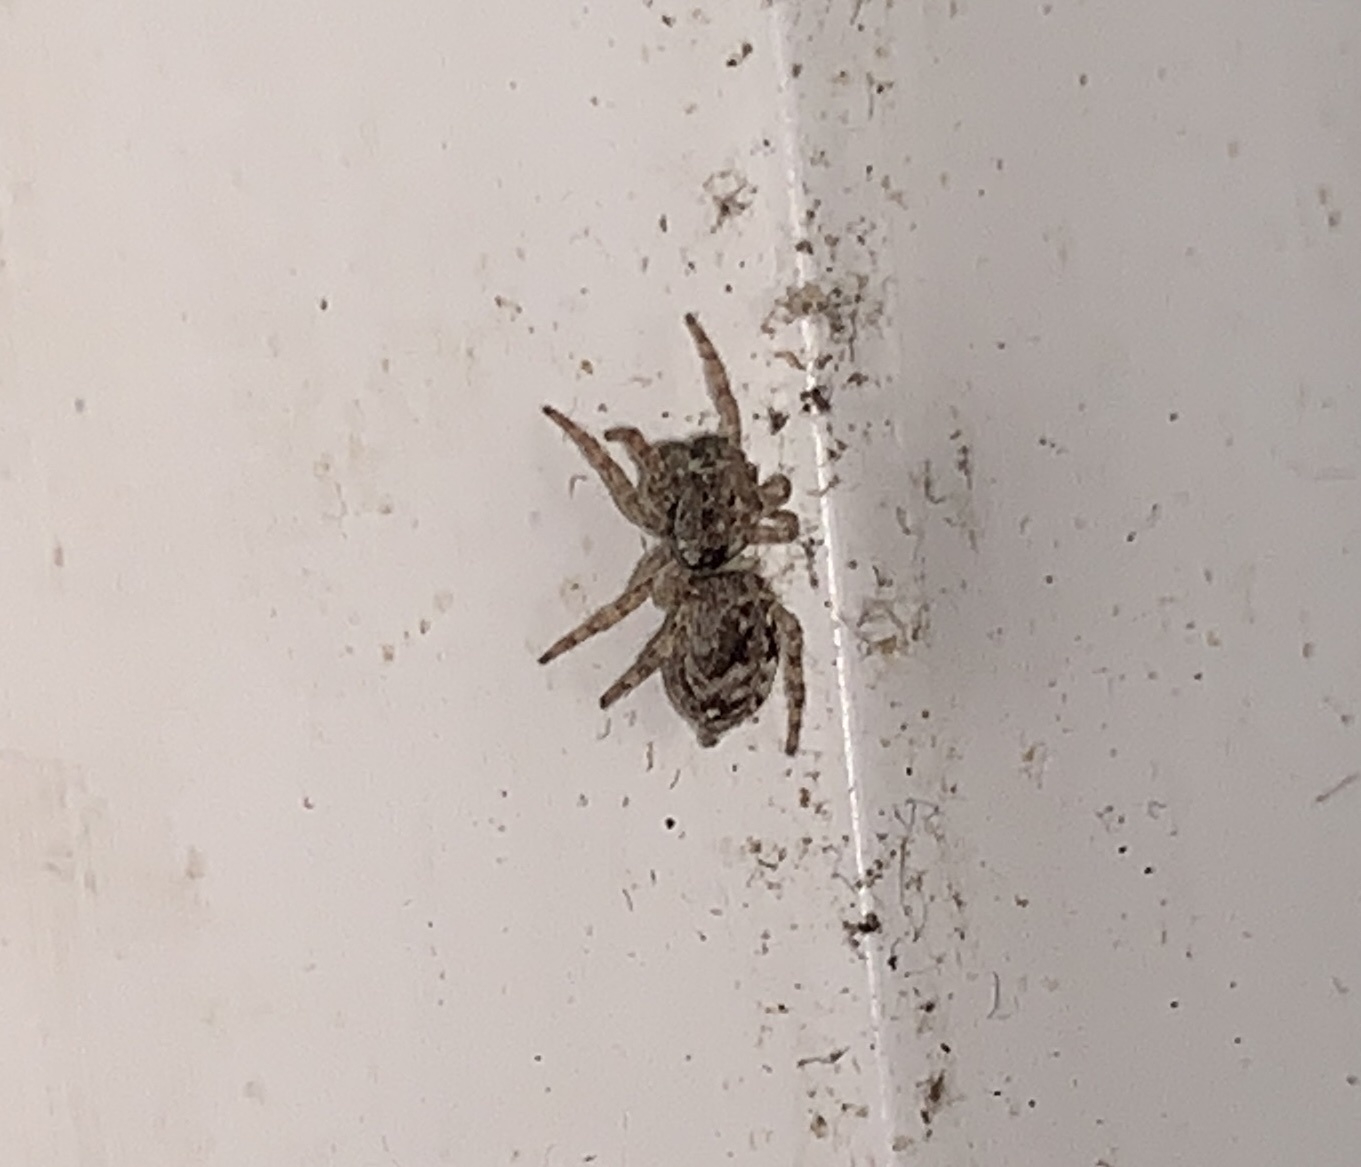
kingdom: Animalia
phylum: Arthropoda
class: Arachnida
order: Araneae
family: Salticidae
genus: Attulus
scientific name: Attulus fasciger
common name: Asiatic wall jumping spider
